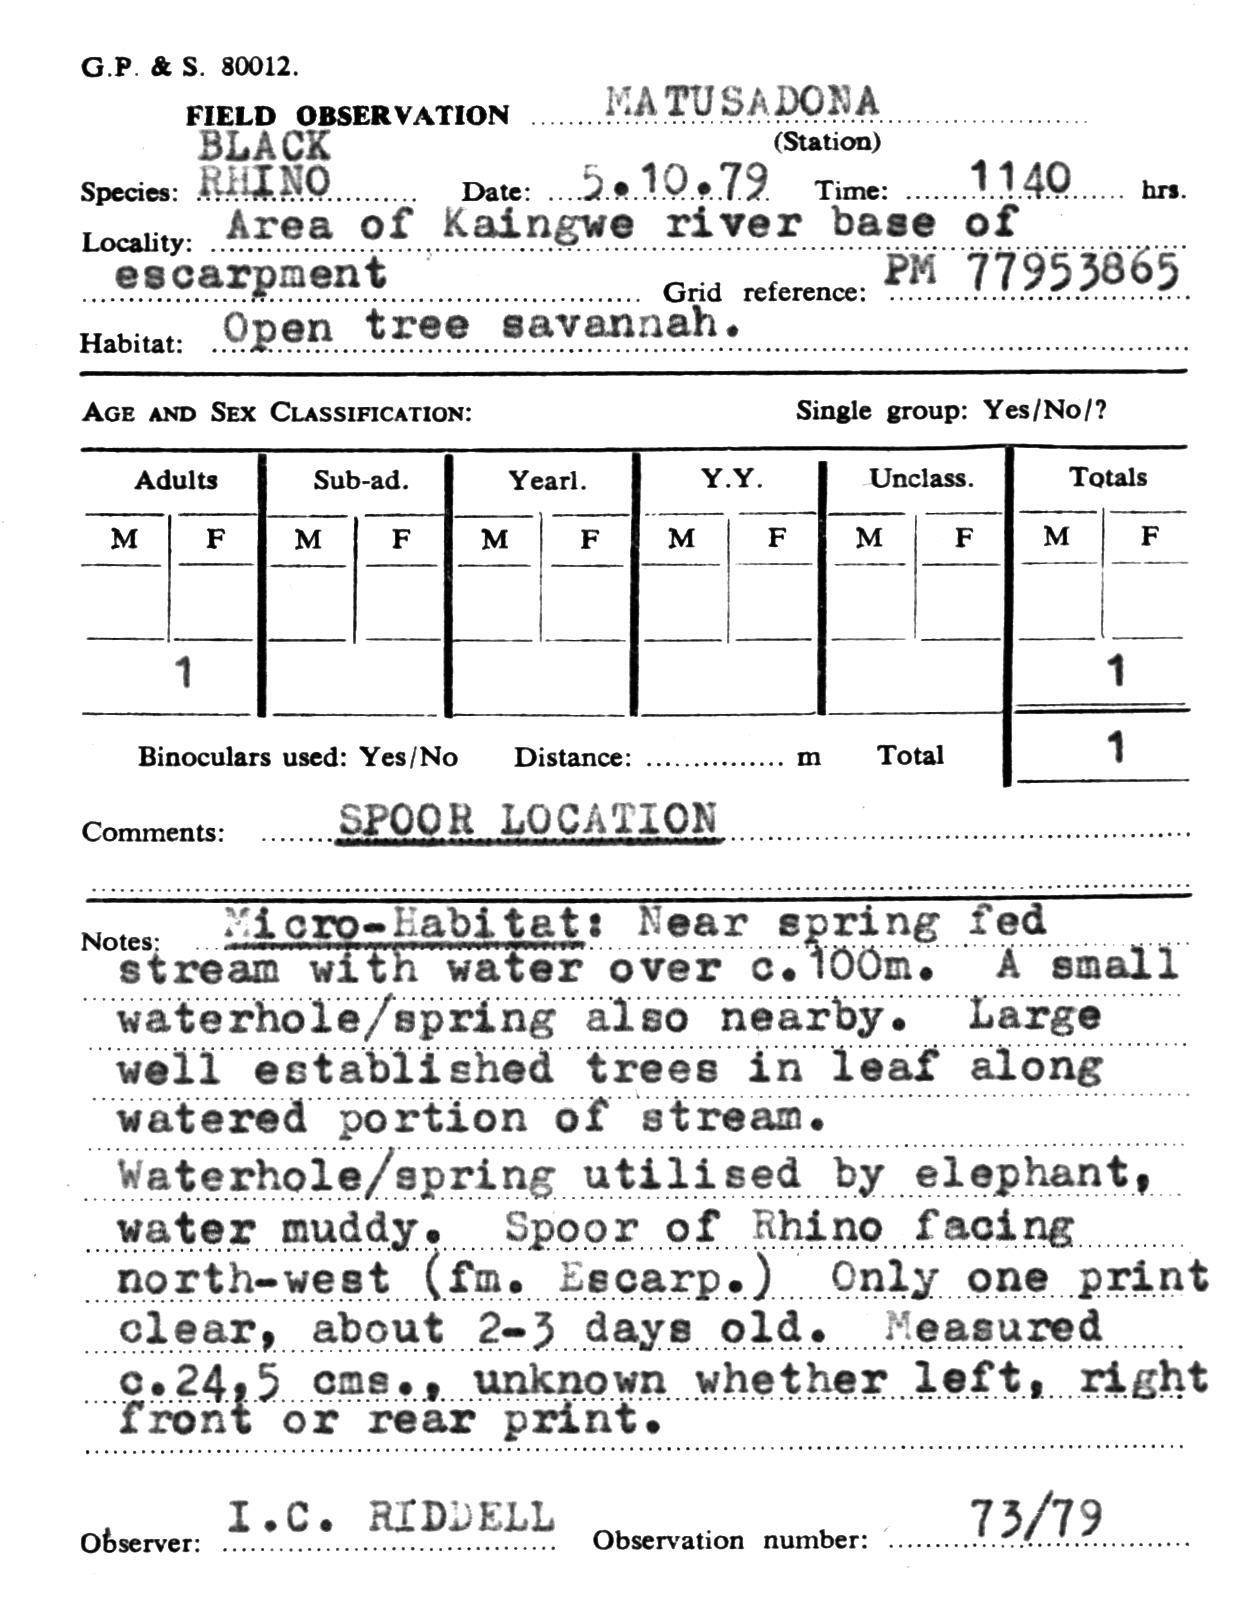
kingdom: Animalia
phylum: Chordata
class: Mammalia
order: Perissodactyla
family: Rhinocerotidae
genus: Diceros
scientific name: Diceros bicornis
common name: Black rhinoceros
